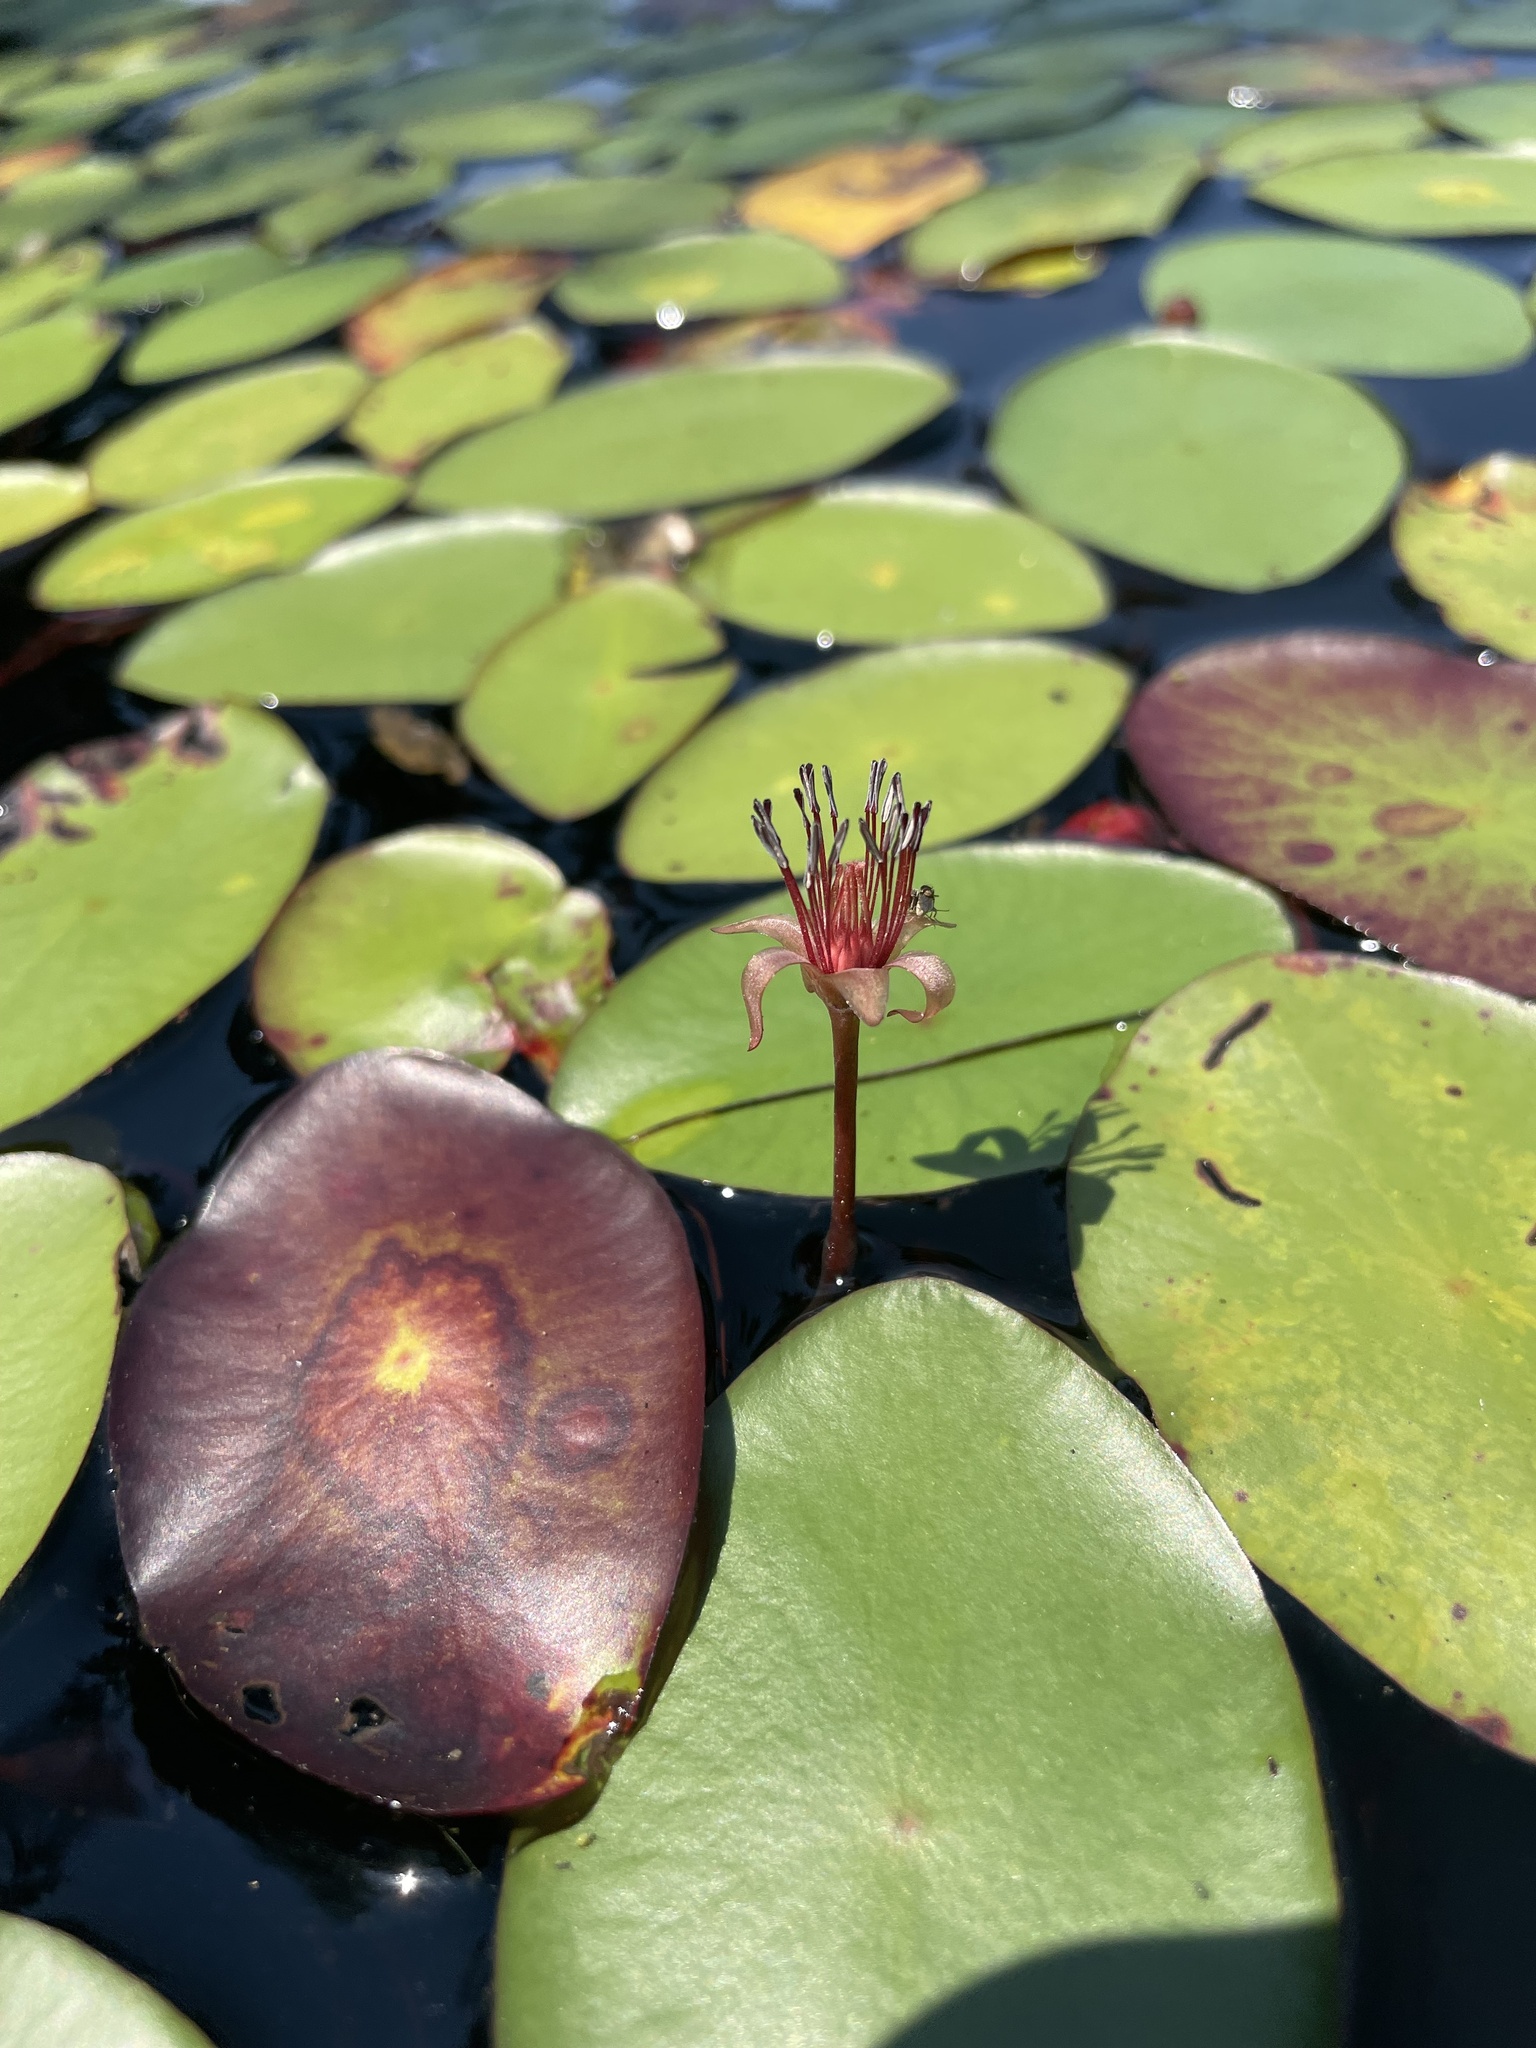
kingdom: Plantae
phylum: Tracheophyta
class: Magnoliopsida
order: Nymphaeales
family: Cabombaceae
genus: Brasenia
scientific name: Brasenia schreberi
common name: Water-shield
